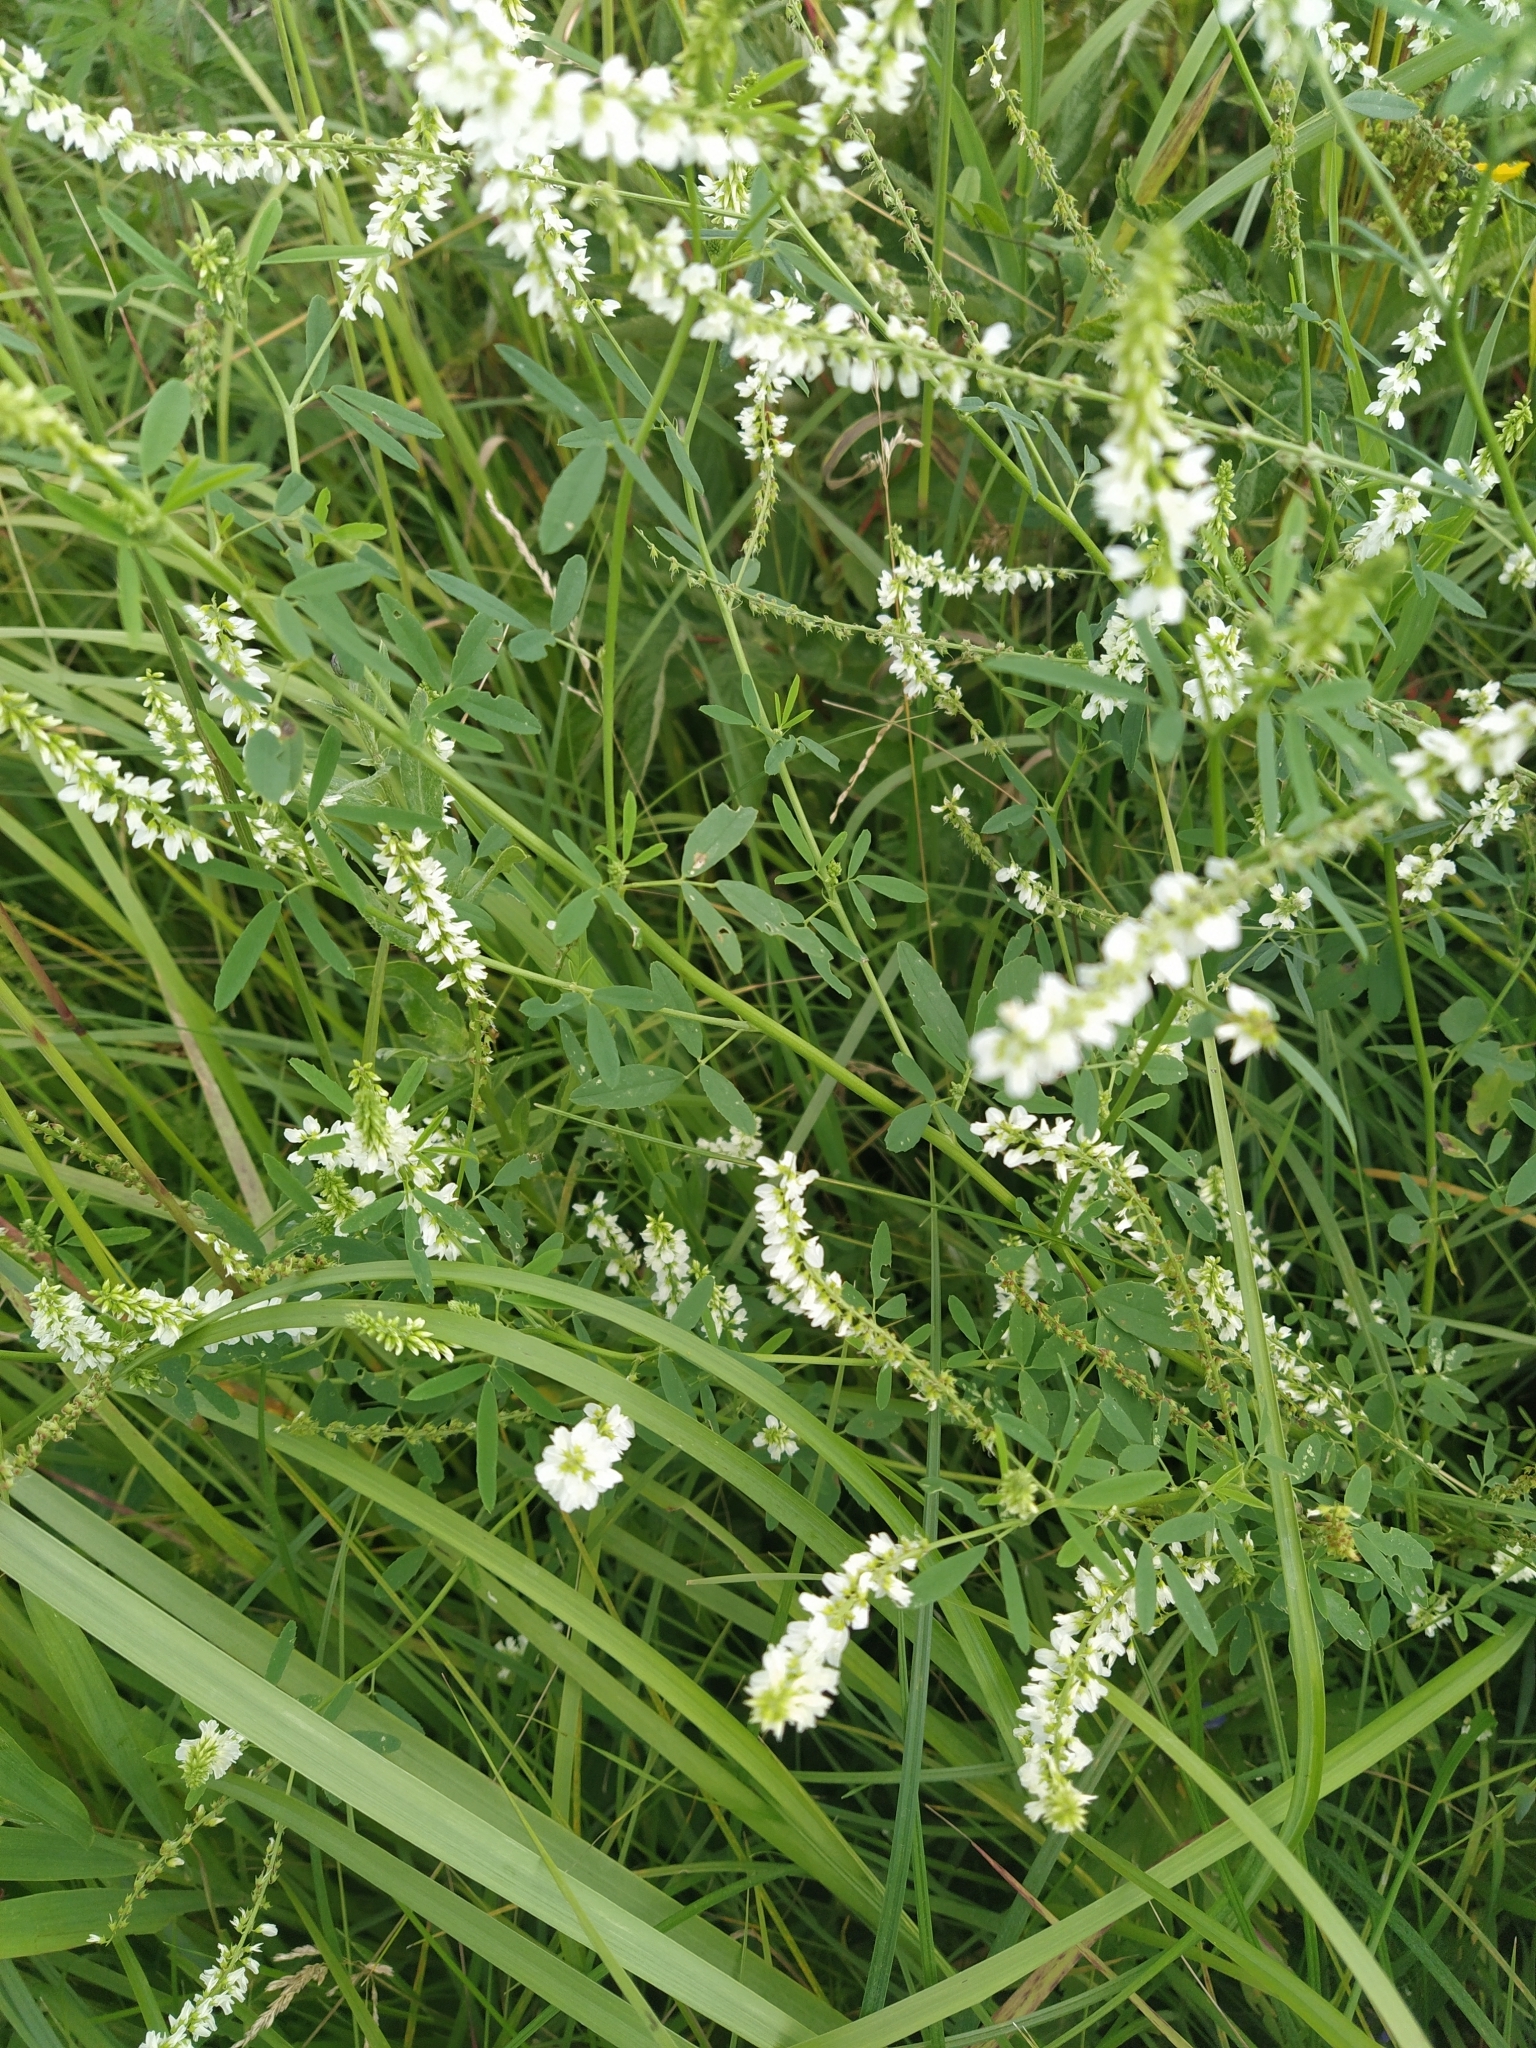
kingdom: Plantae
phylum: Tracheophyta
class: Magnoliopsida
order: Fabales
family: Fabaceae
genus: Melilotus
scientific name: Melilotus albus
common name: White melilot
